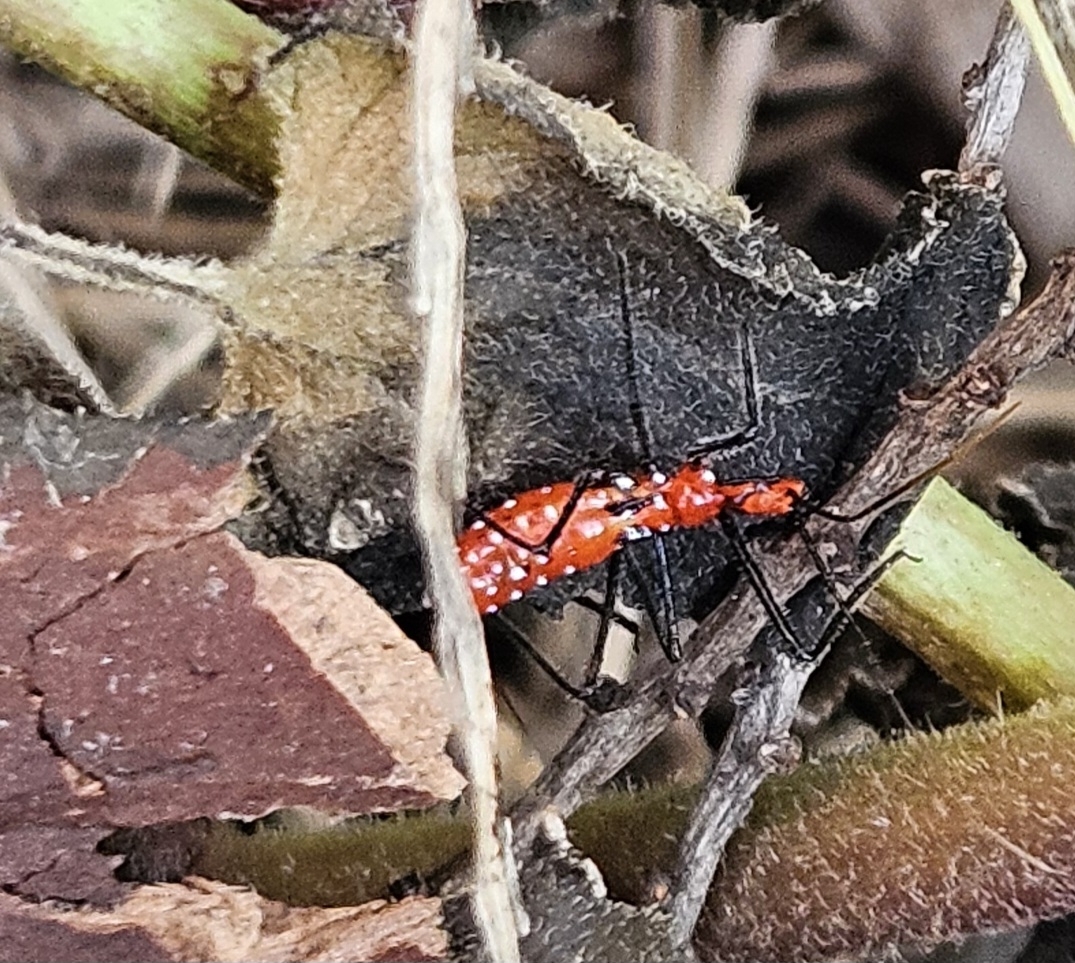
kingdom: Animalia
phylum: Arthropoda
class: Insecta
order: Hemiptera
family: Reduviidae
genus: Zelus
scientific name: Zelus longipes
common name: Milkweed assassin bug
